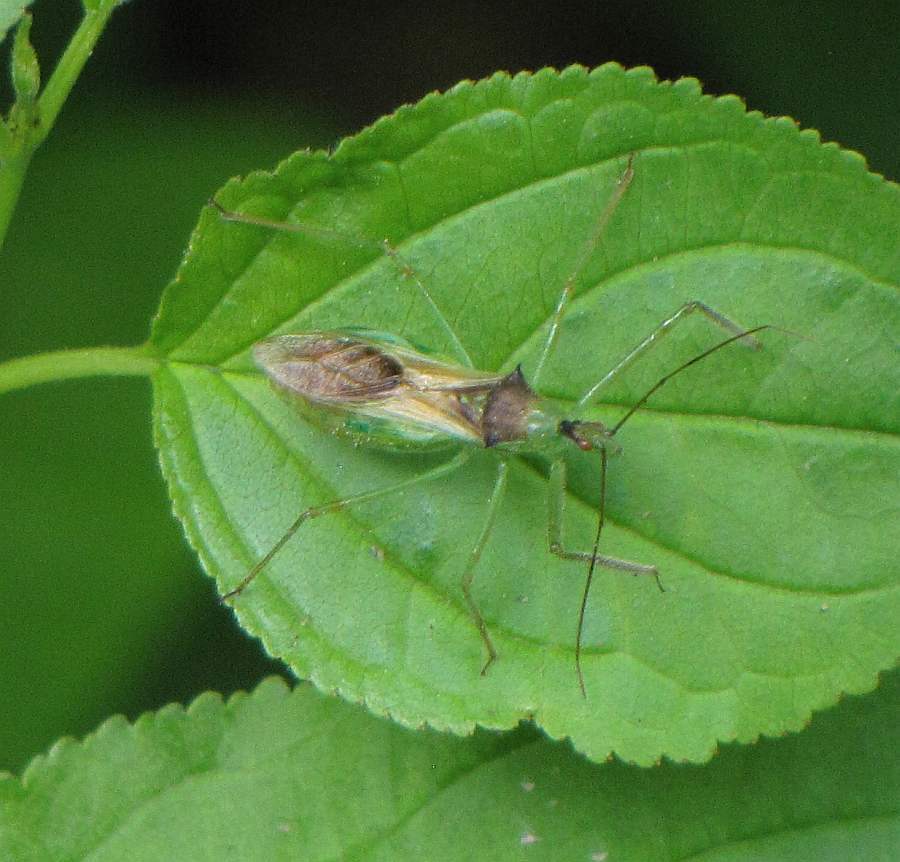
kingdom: Animalia
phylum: Arthropoda
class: Insecta
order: Hemiptera
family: Reduviidae
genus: Zelus
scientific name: Zelus luridus
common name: Pale green assassin bug
